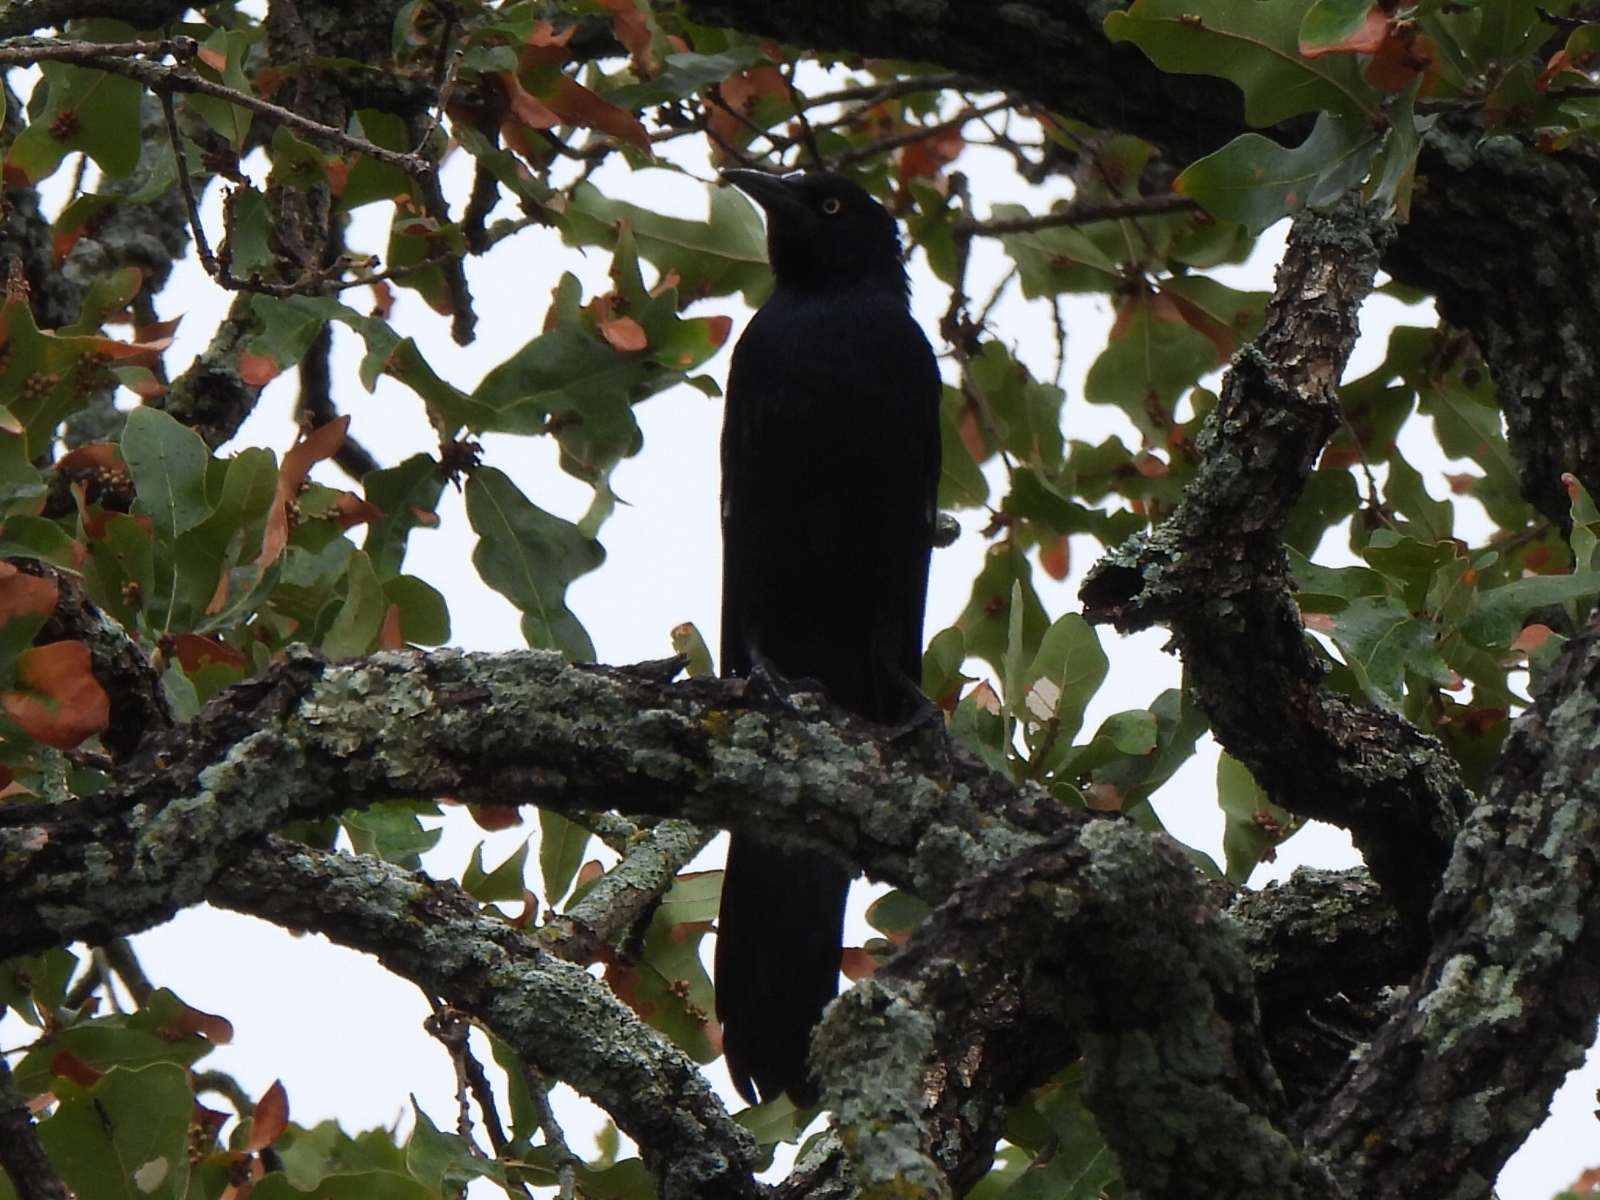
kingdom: Animalia
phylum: Chordata
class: Aves
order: Passeriformes
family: Icteridae
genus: Quiscalus
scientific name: Quiscalus mexicanus
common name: Great-tailed grackle
